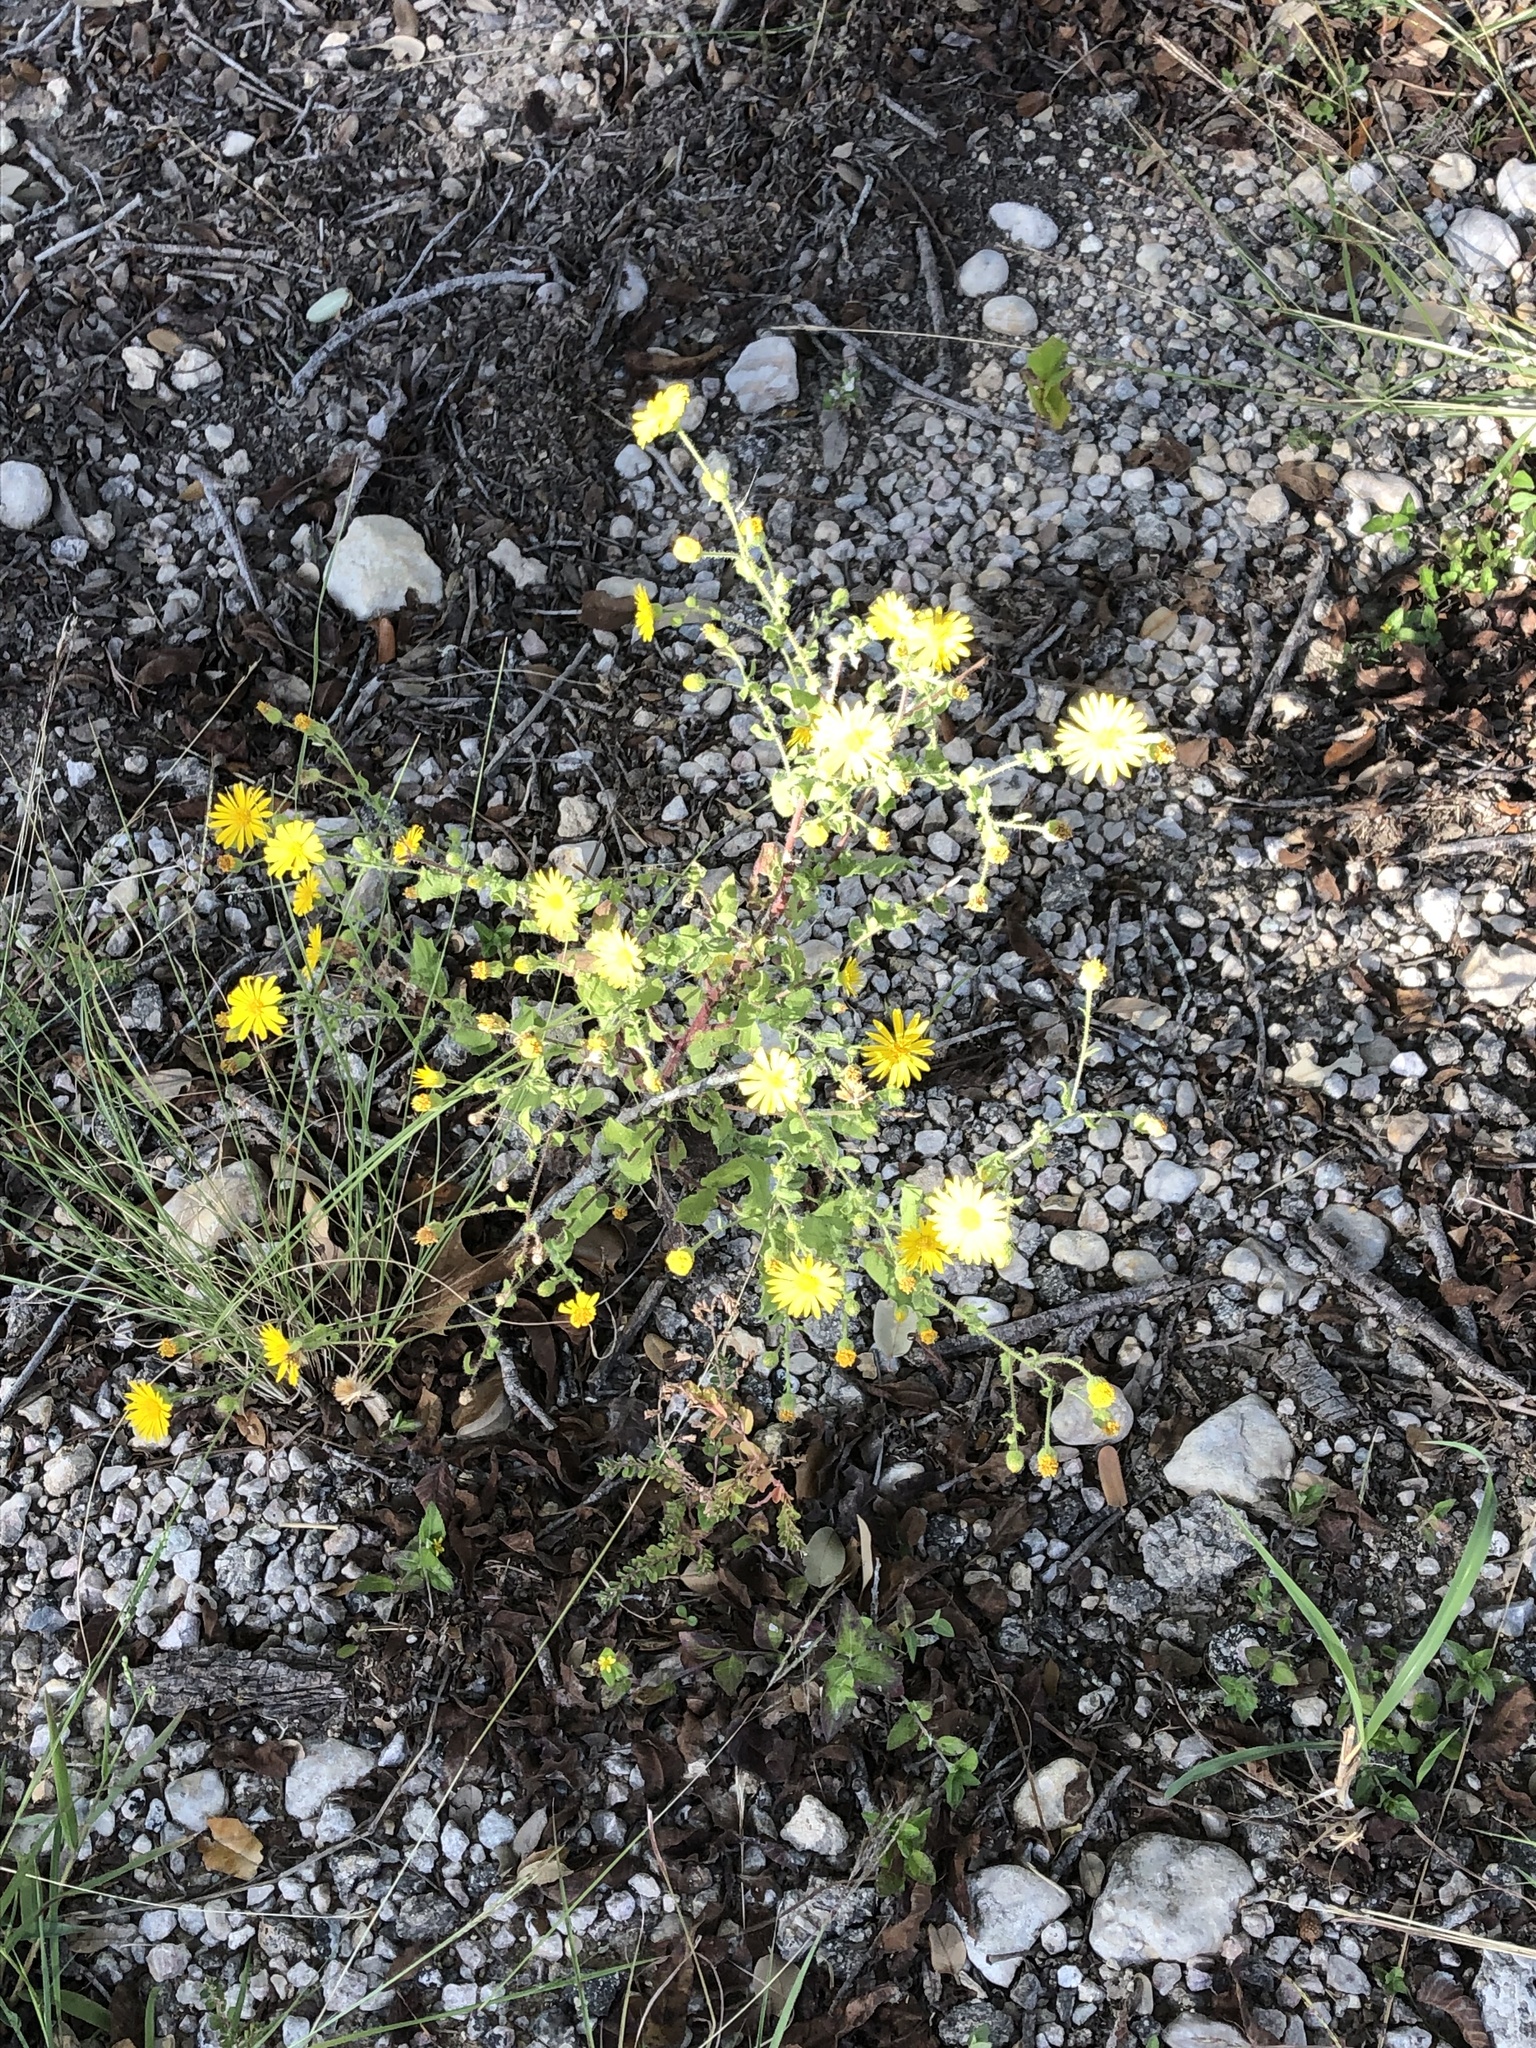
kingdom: Plantae
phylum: Tracheophyta
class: Magnoliopsida
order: Asterales
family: Asteraceae
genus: Heterotheca
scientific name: Heterotheca subaxillaris
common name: Camphorweed
